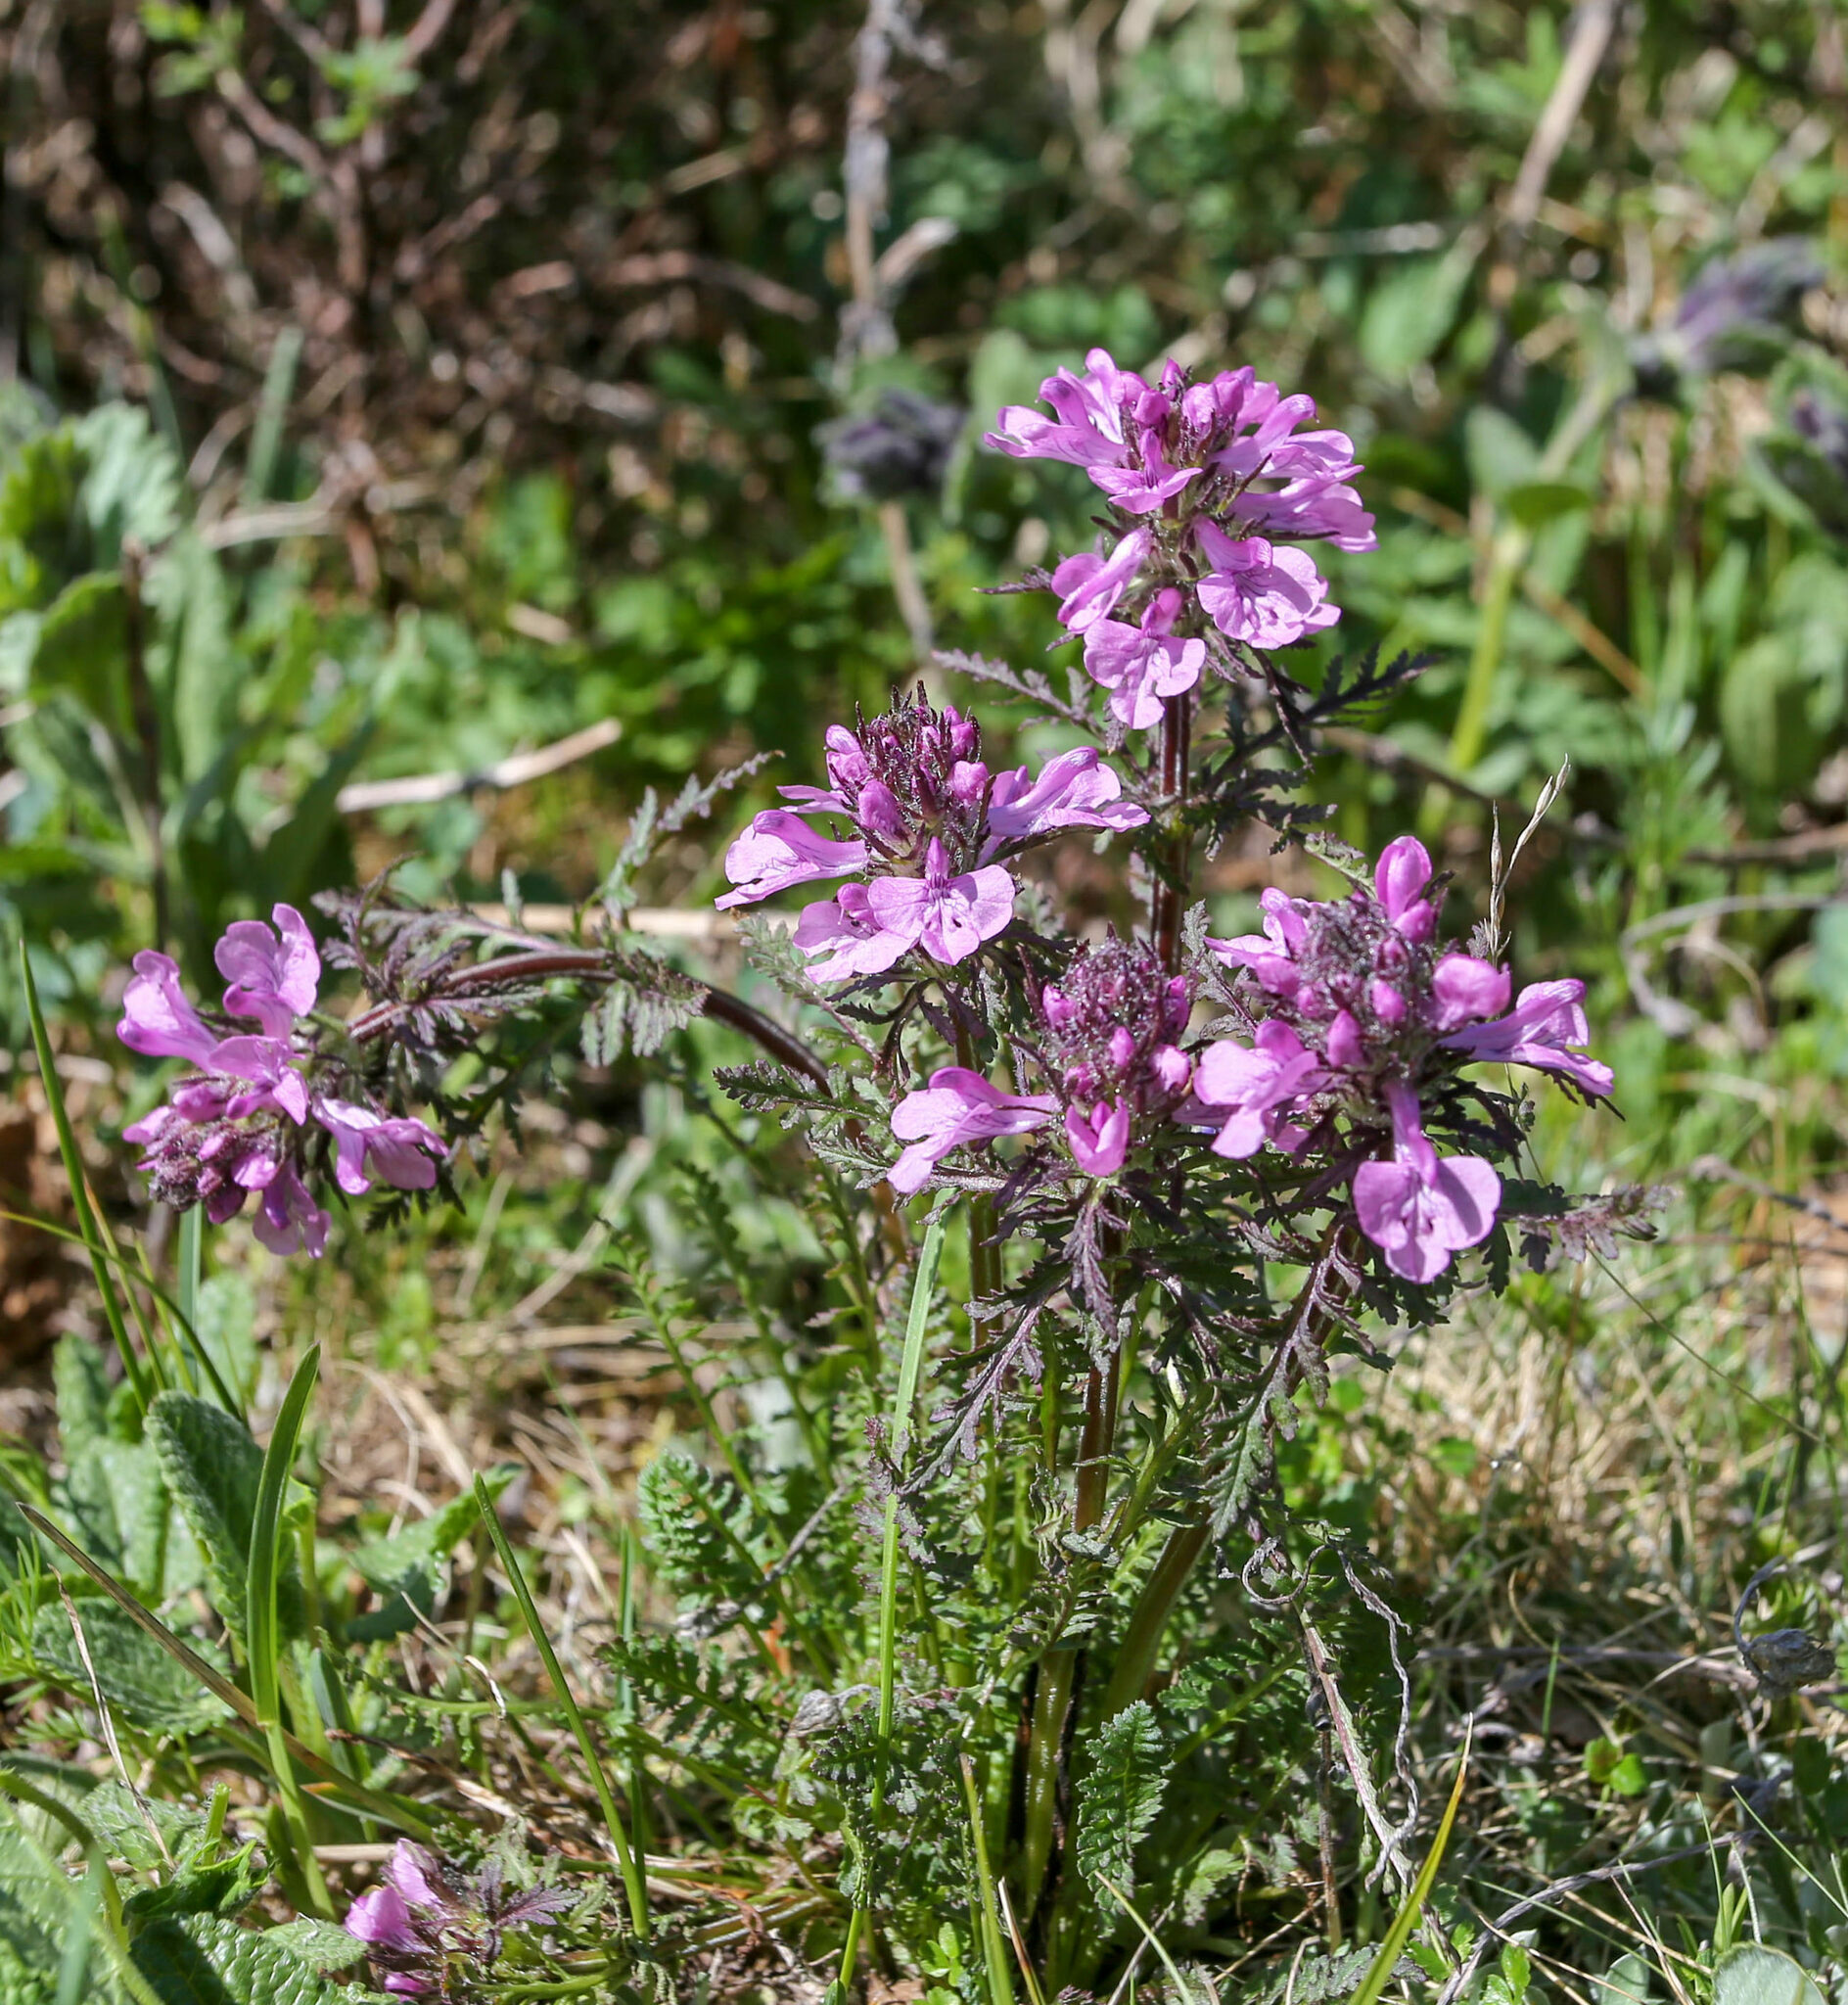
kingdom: Plantae
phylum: Tracheophyta
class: Magnoliopsida
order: Lamiales
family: Orobanchaceae
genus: Pedicularis
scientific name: Pedicularis anthemifolia
